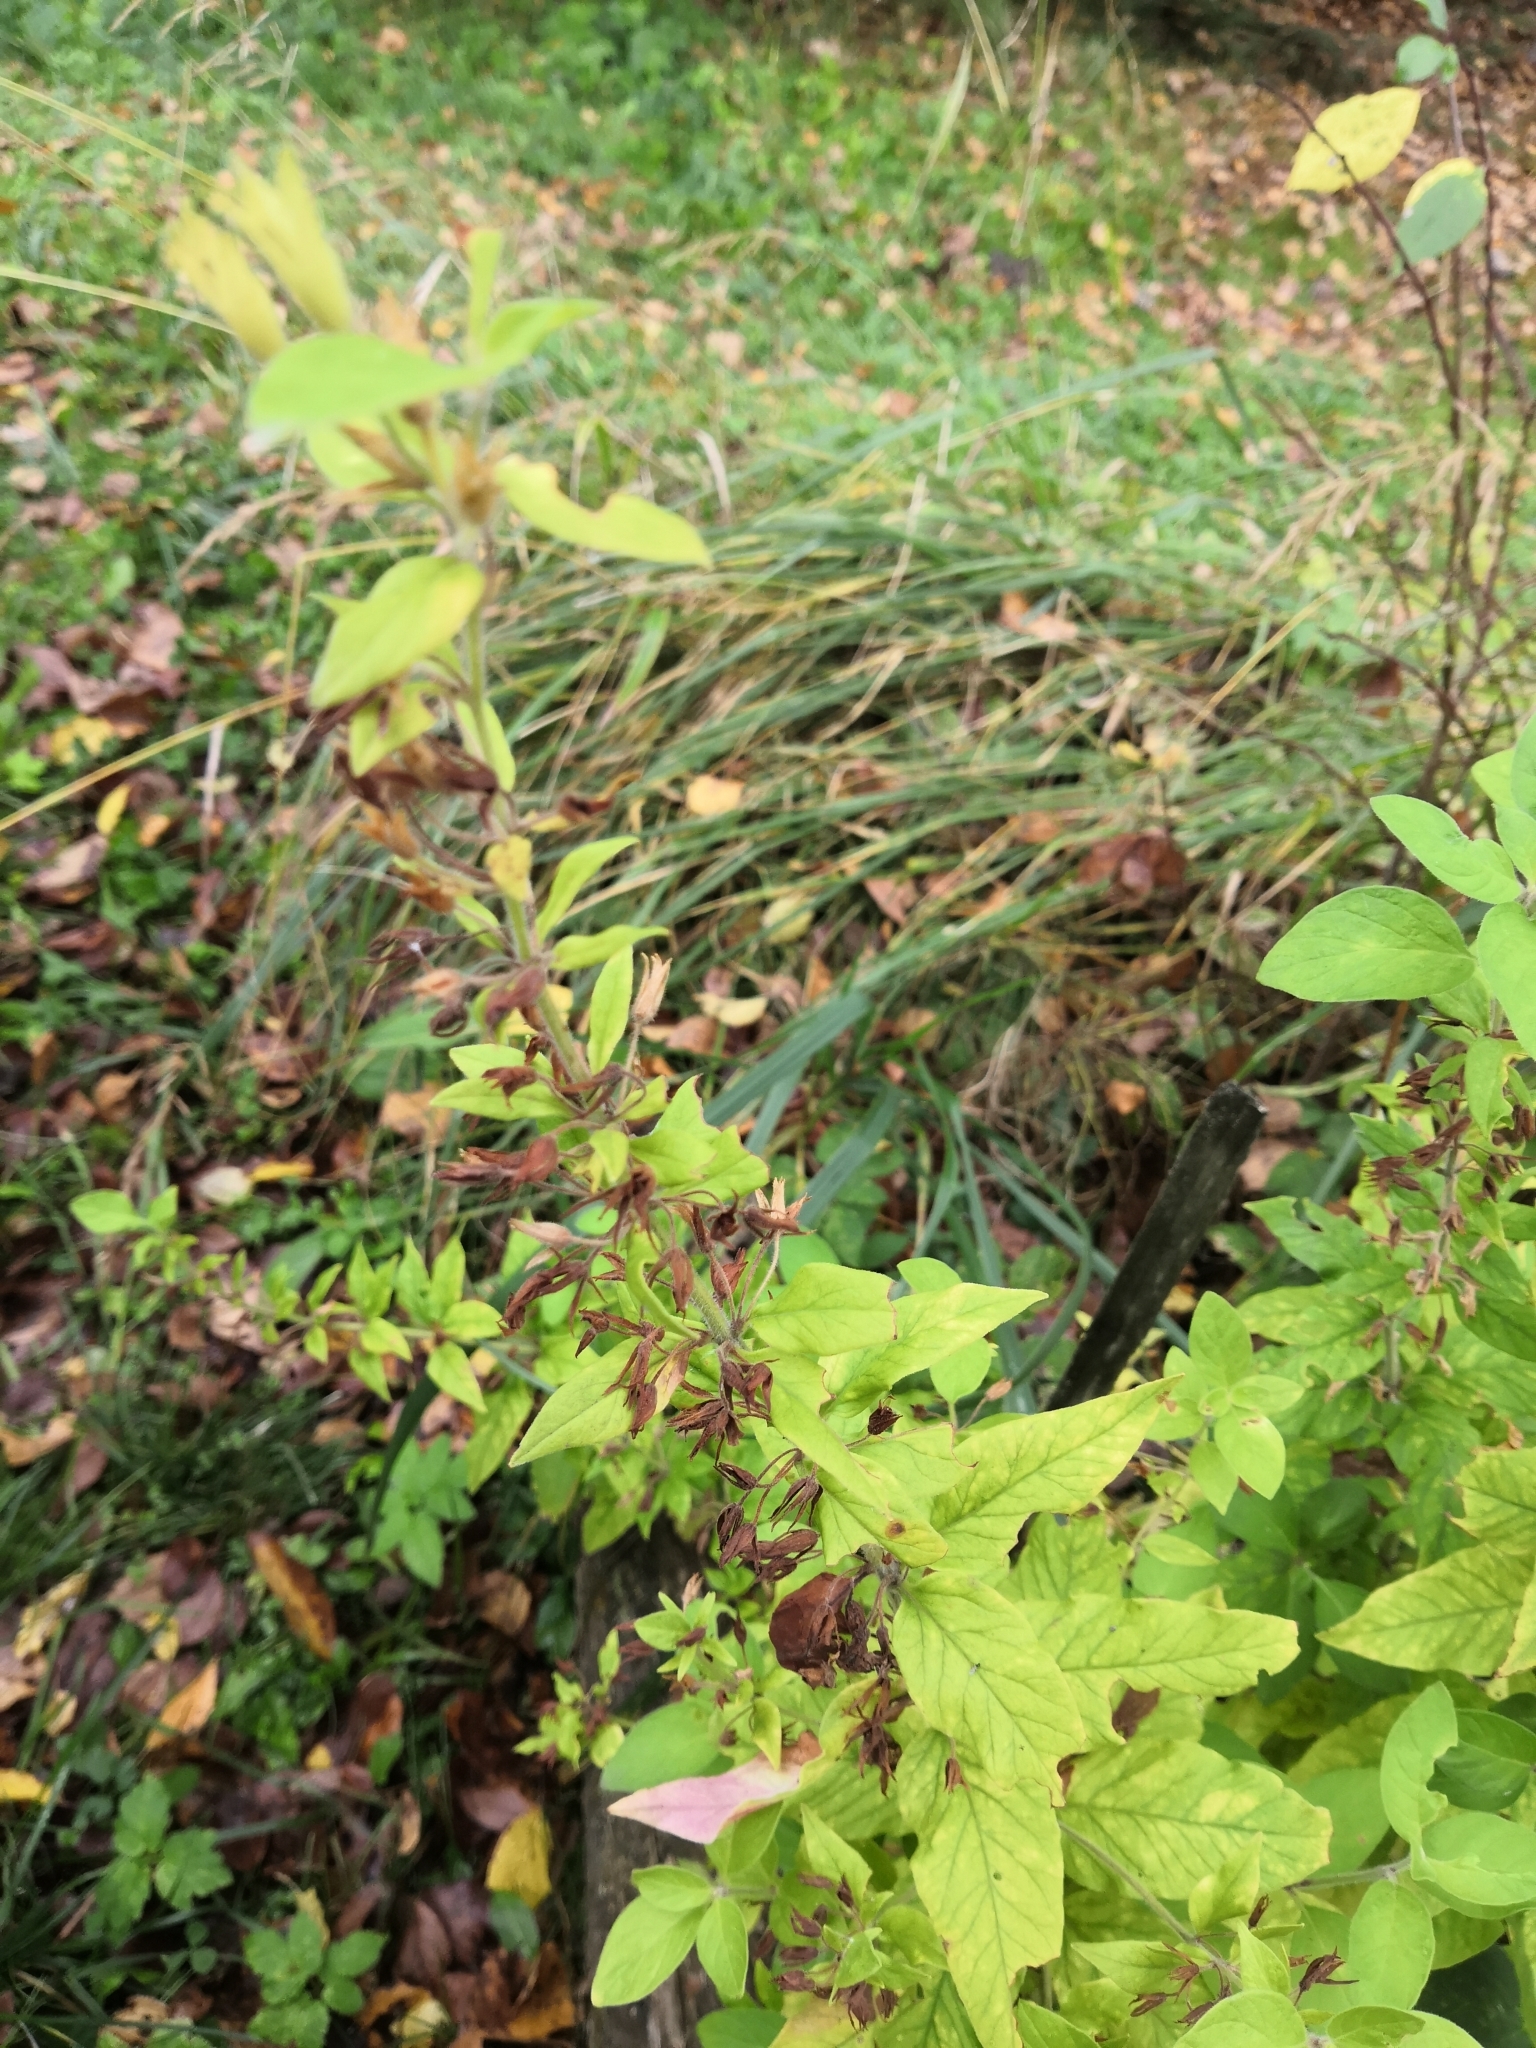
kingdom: Plantae
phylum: Tracheophyta
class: Magnoliopsida
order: Ericales
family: Primulaceae
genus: Lysimachia
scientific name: Lysimachia punctata
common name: Dotted loosestrife
